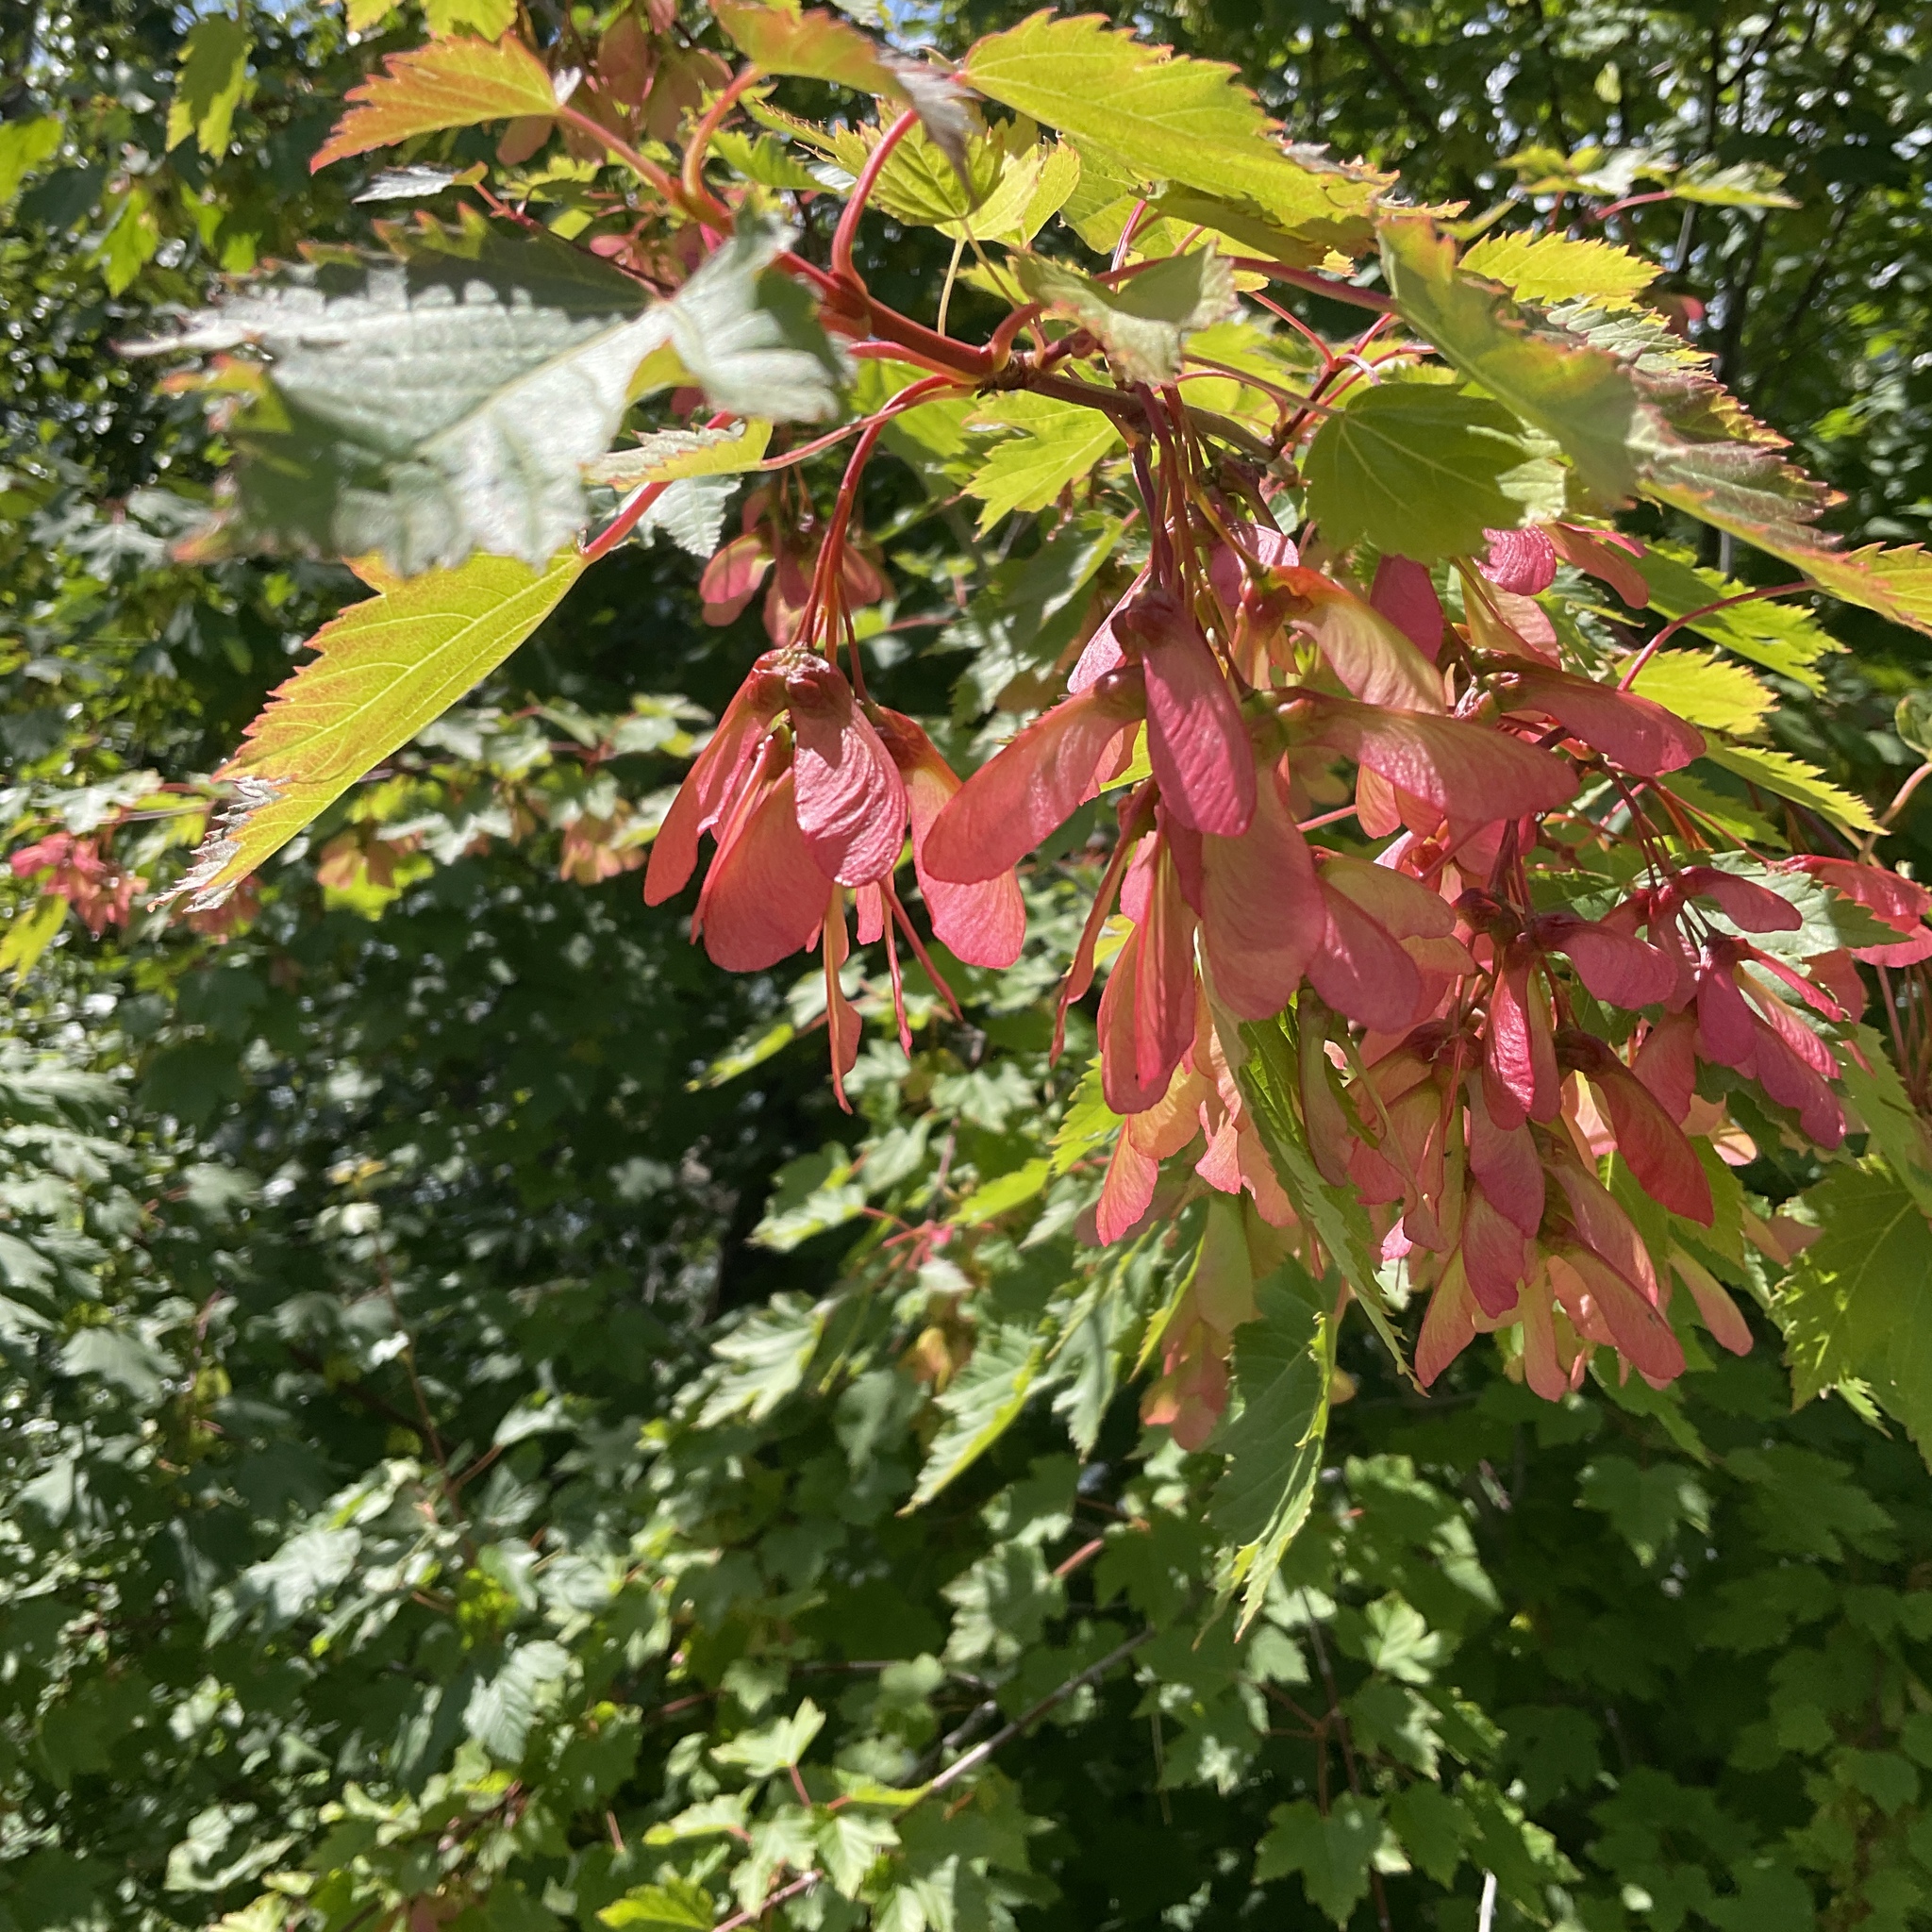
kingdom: Plantae
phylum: Tracheophyta
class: Magnoliopsida
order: Sapindales
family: Sapindaceae
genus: Acer
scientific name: Acer glabrum
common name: Rocky mountain maple
